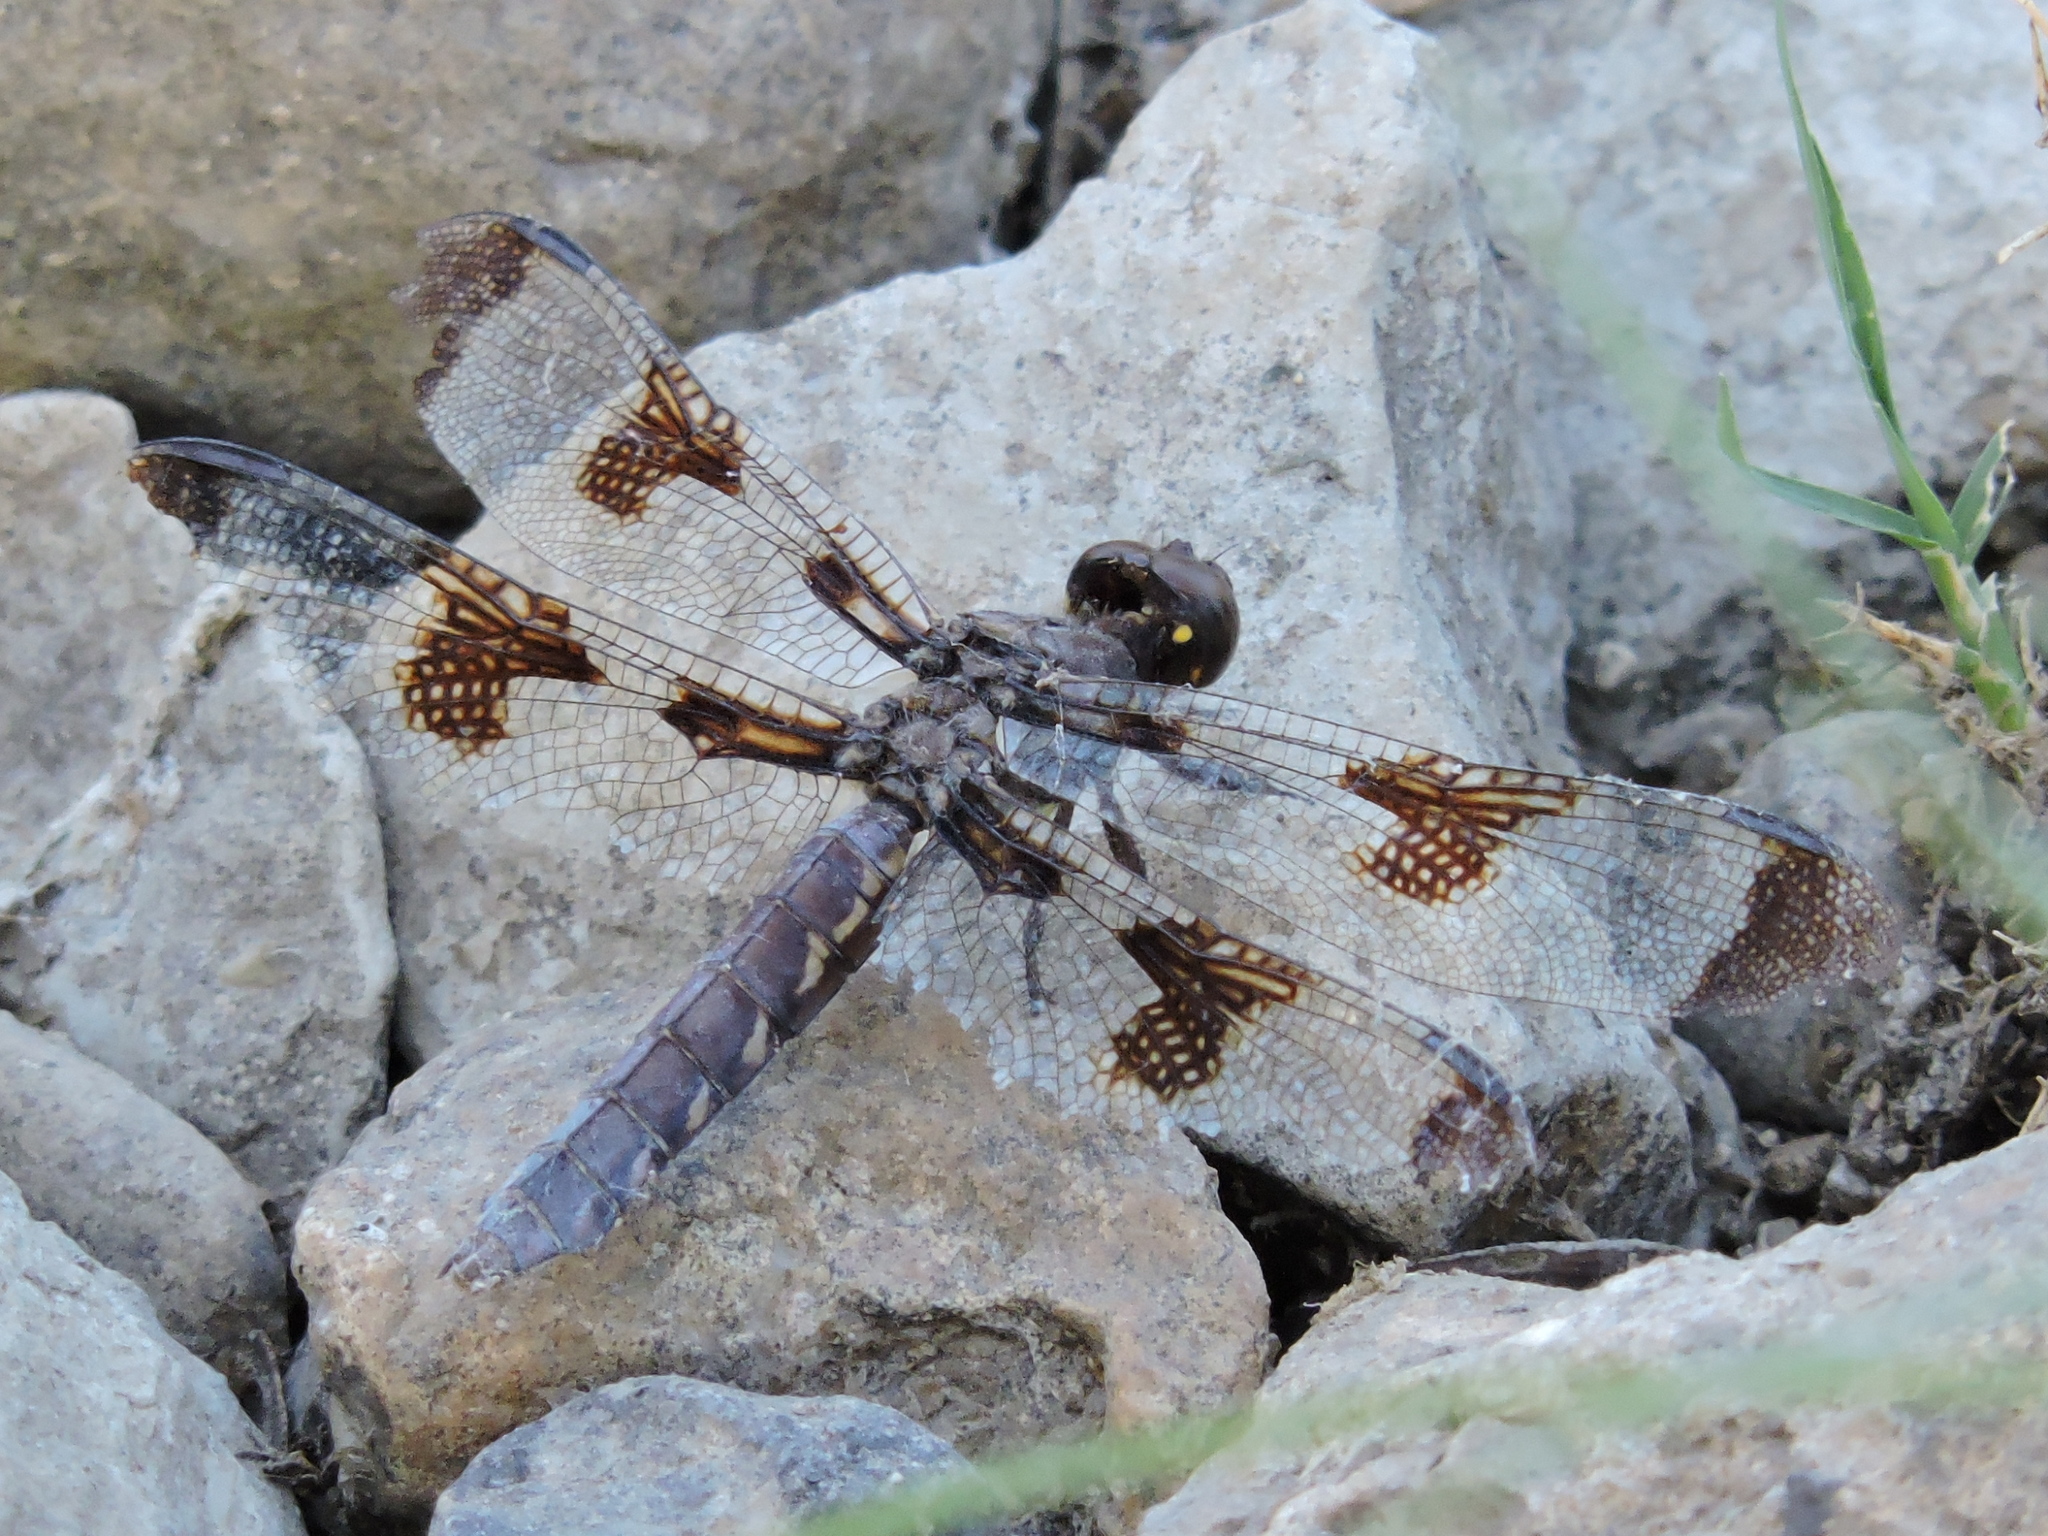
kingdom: Animalia
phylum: Arthropoda
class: Insecta
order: Odonata
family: Libellulidae
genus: Plathemis
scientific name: Plathemis lydia
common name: Common whitetail
